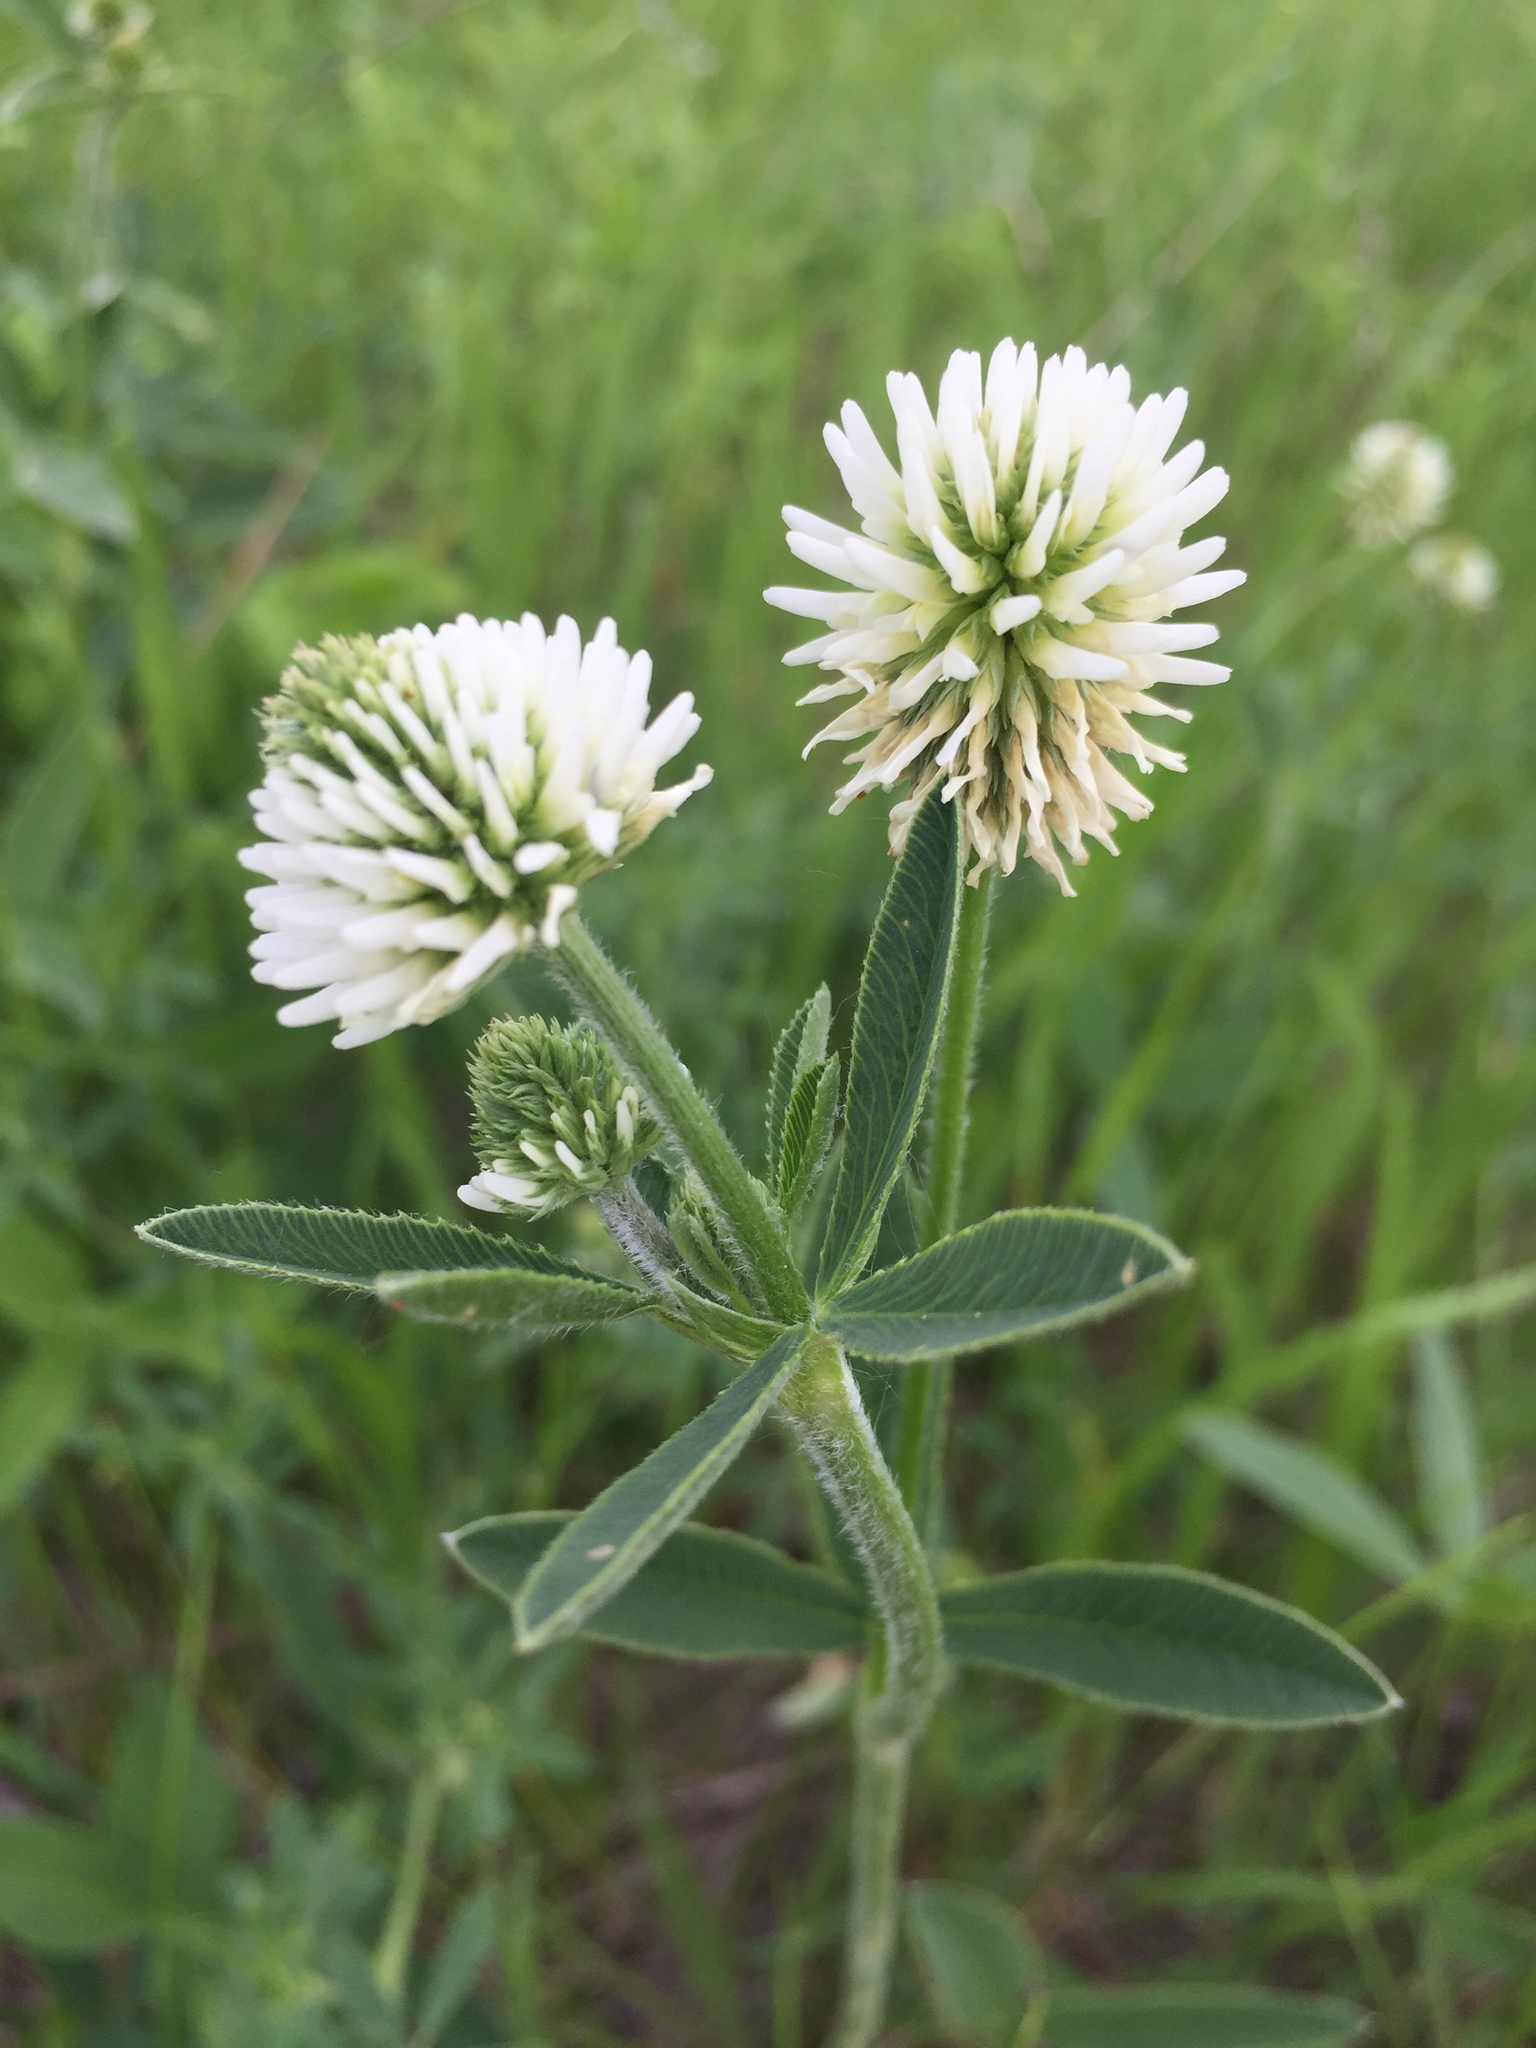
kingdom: Plantae
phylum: Tracheophyta
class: Magnoliopsida
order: Fabales
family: Fabaceae
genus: Trifolium
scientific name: Trifolium montanum
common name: Mountain clover
